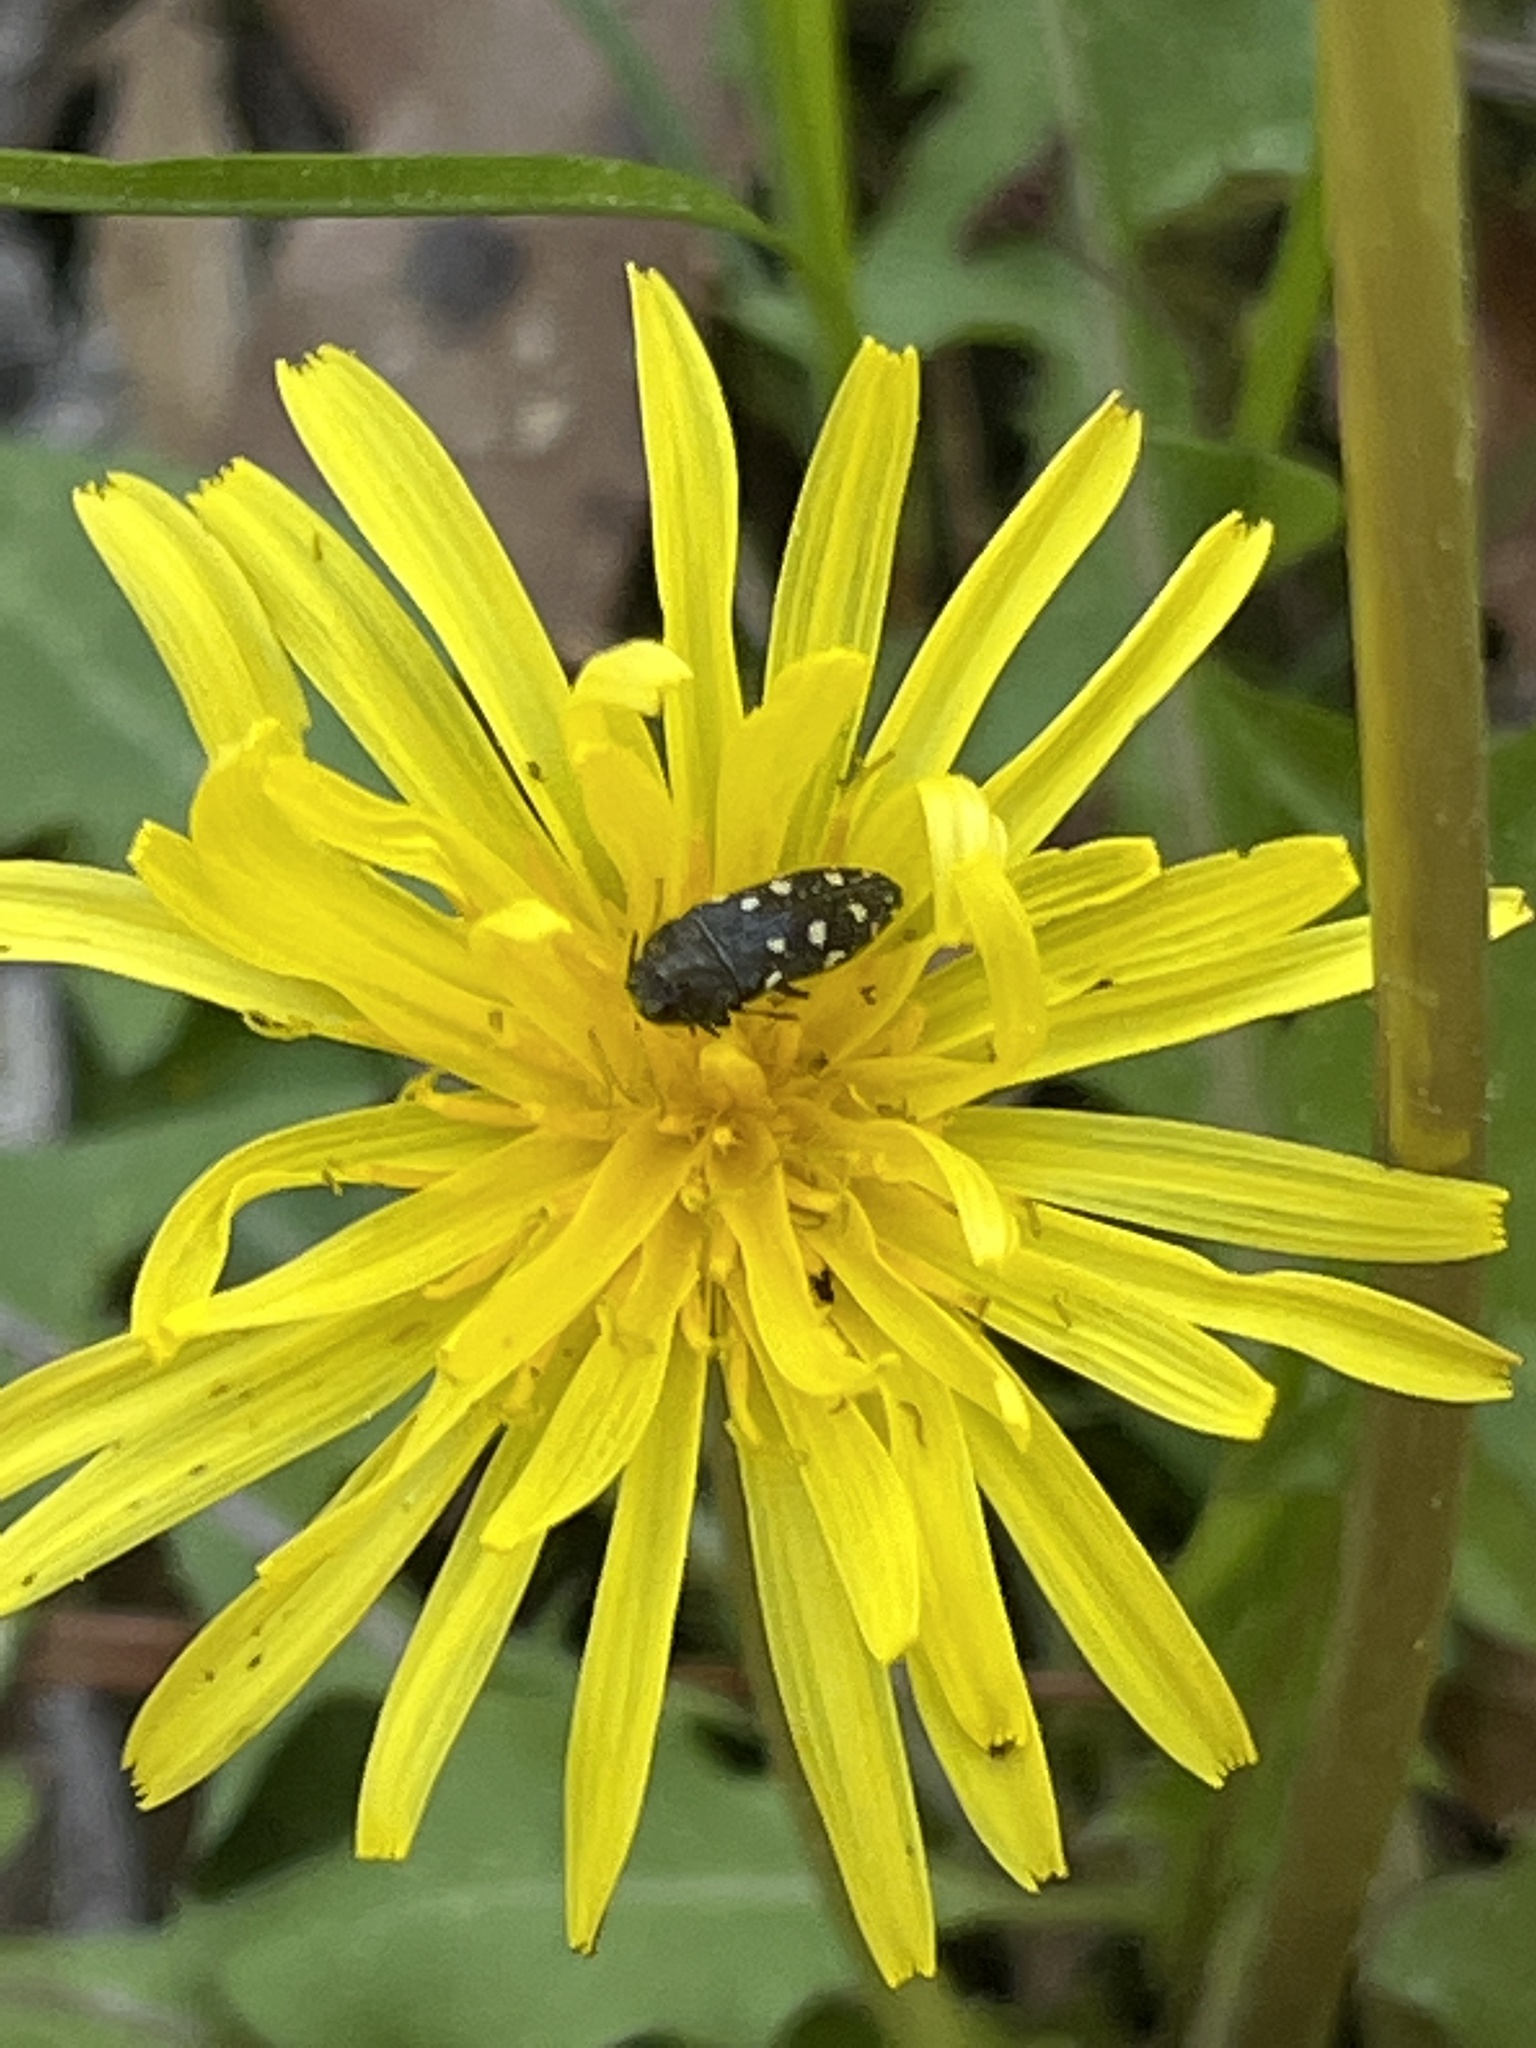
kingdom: Animalia
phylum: Arthropoda
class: Insecta
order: Coleoptera
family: Buprestidae
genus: Acmaeodera
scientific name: Acmaeodera tubulus
